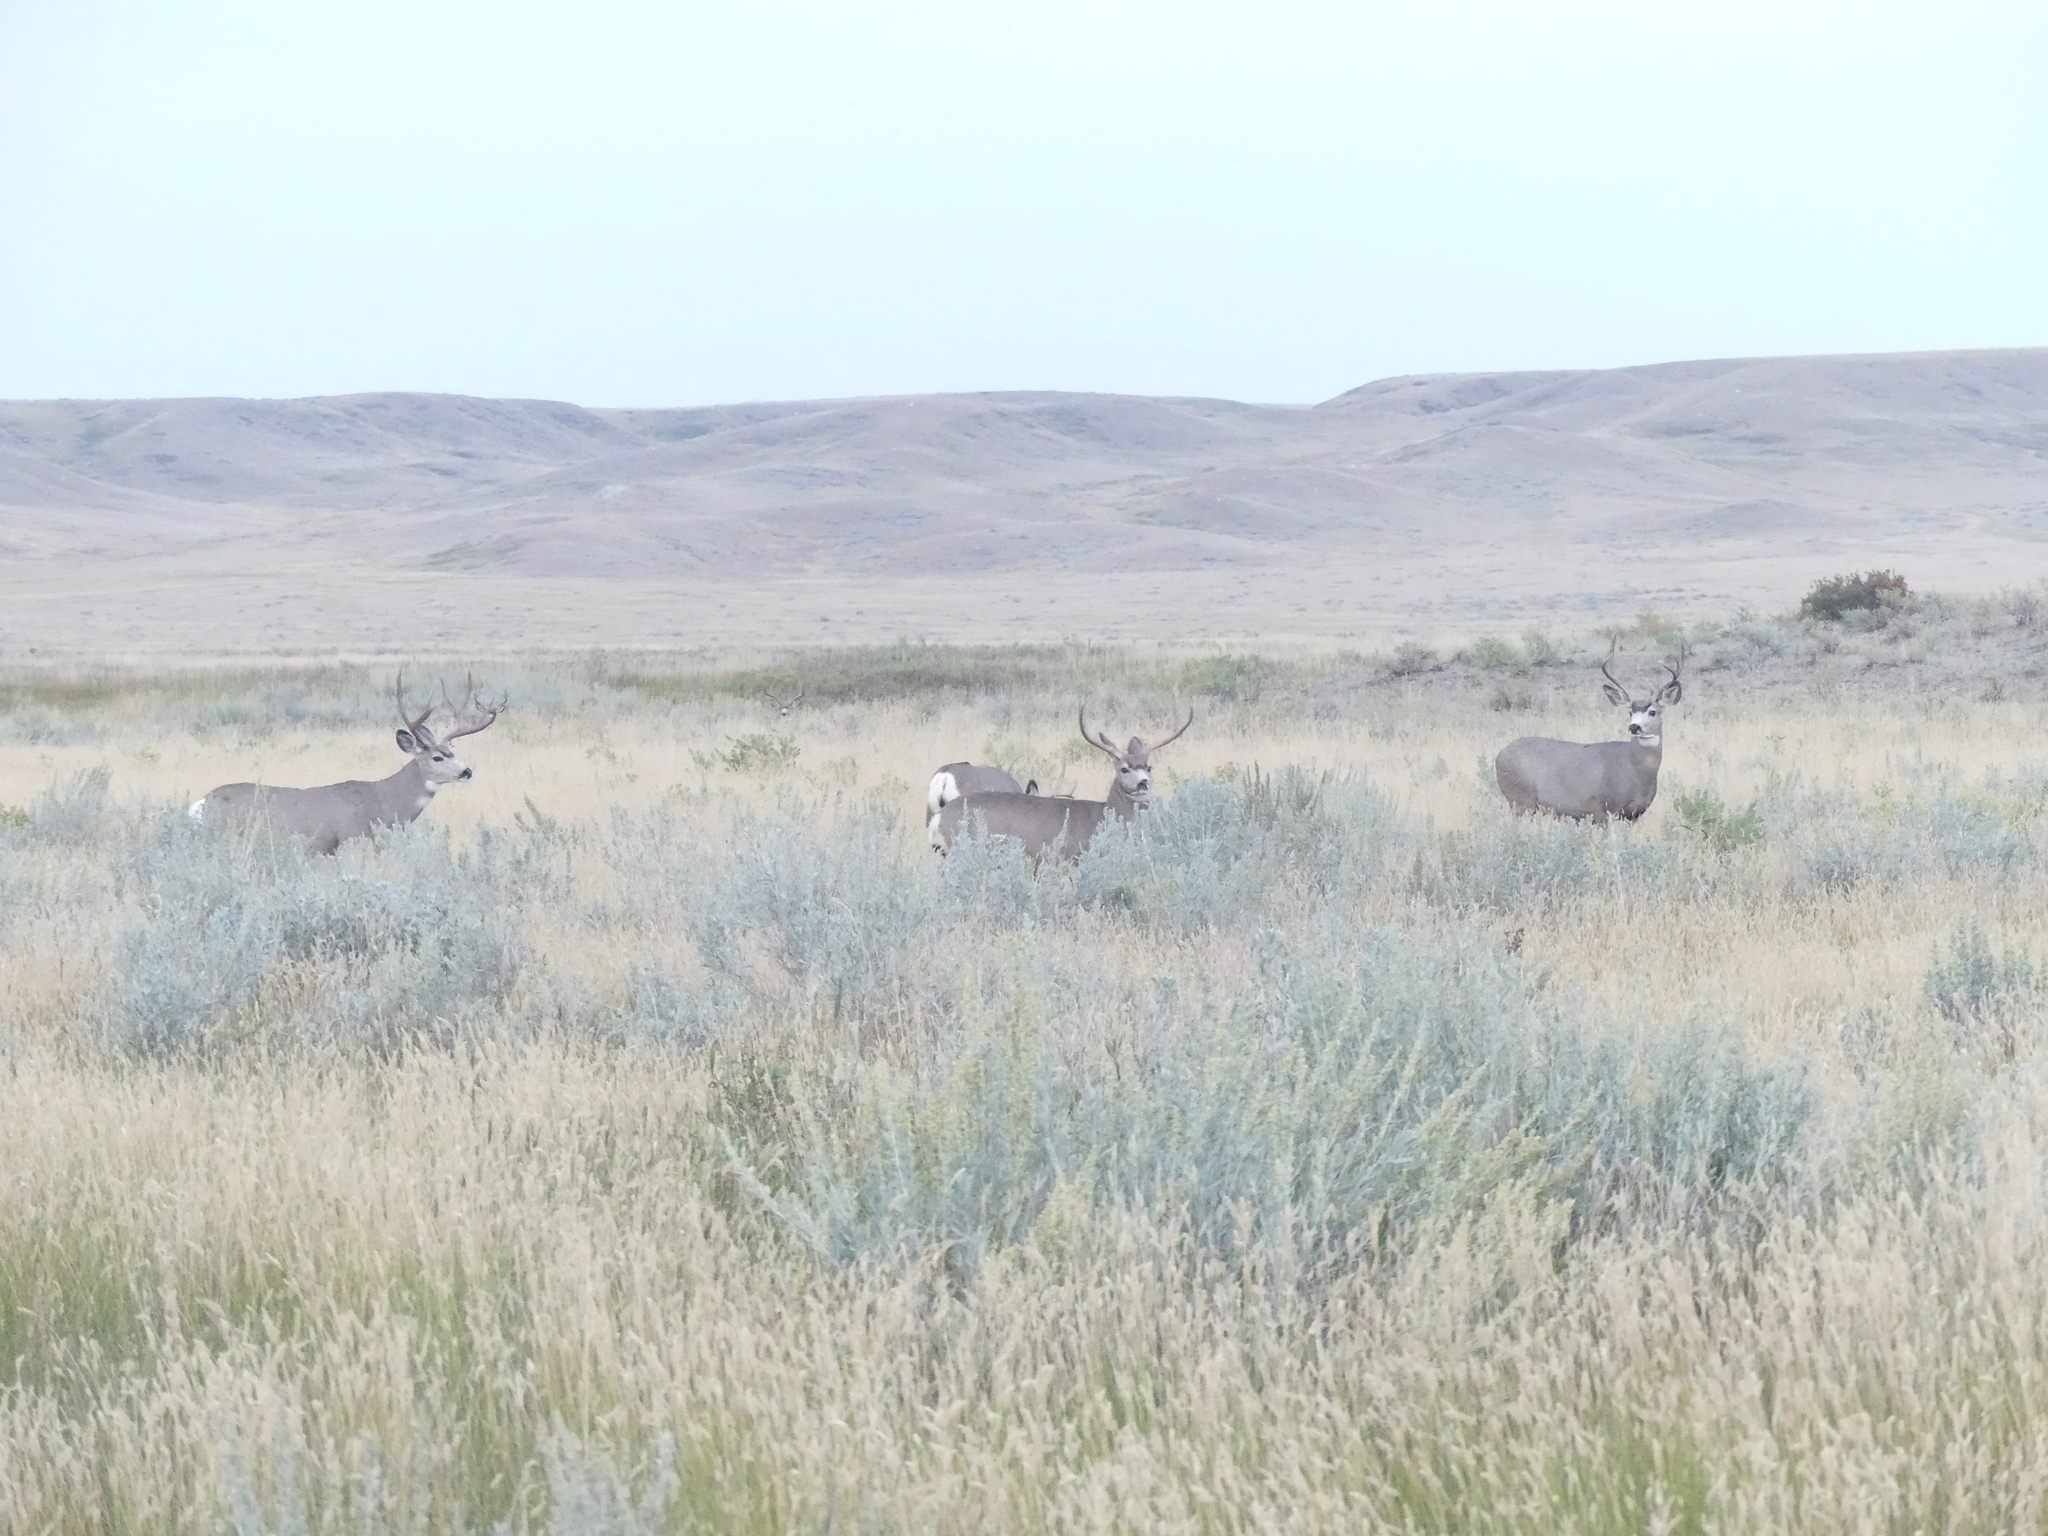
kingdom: Animalia
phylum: Chordata
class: Mammalia
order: Artiodactyla
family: Cervidae
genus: Odocoileus
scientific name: Odocoileus hemionus
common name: Mule deer
